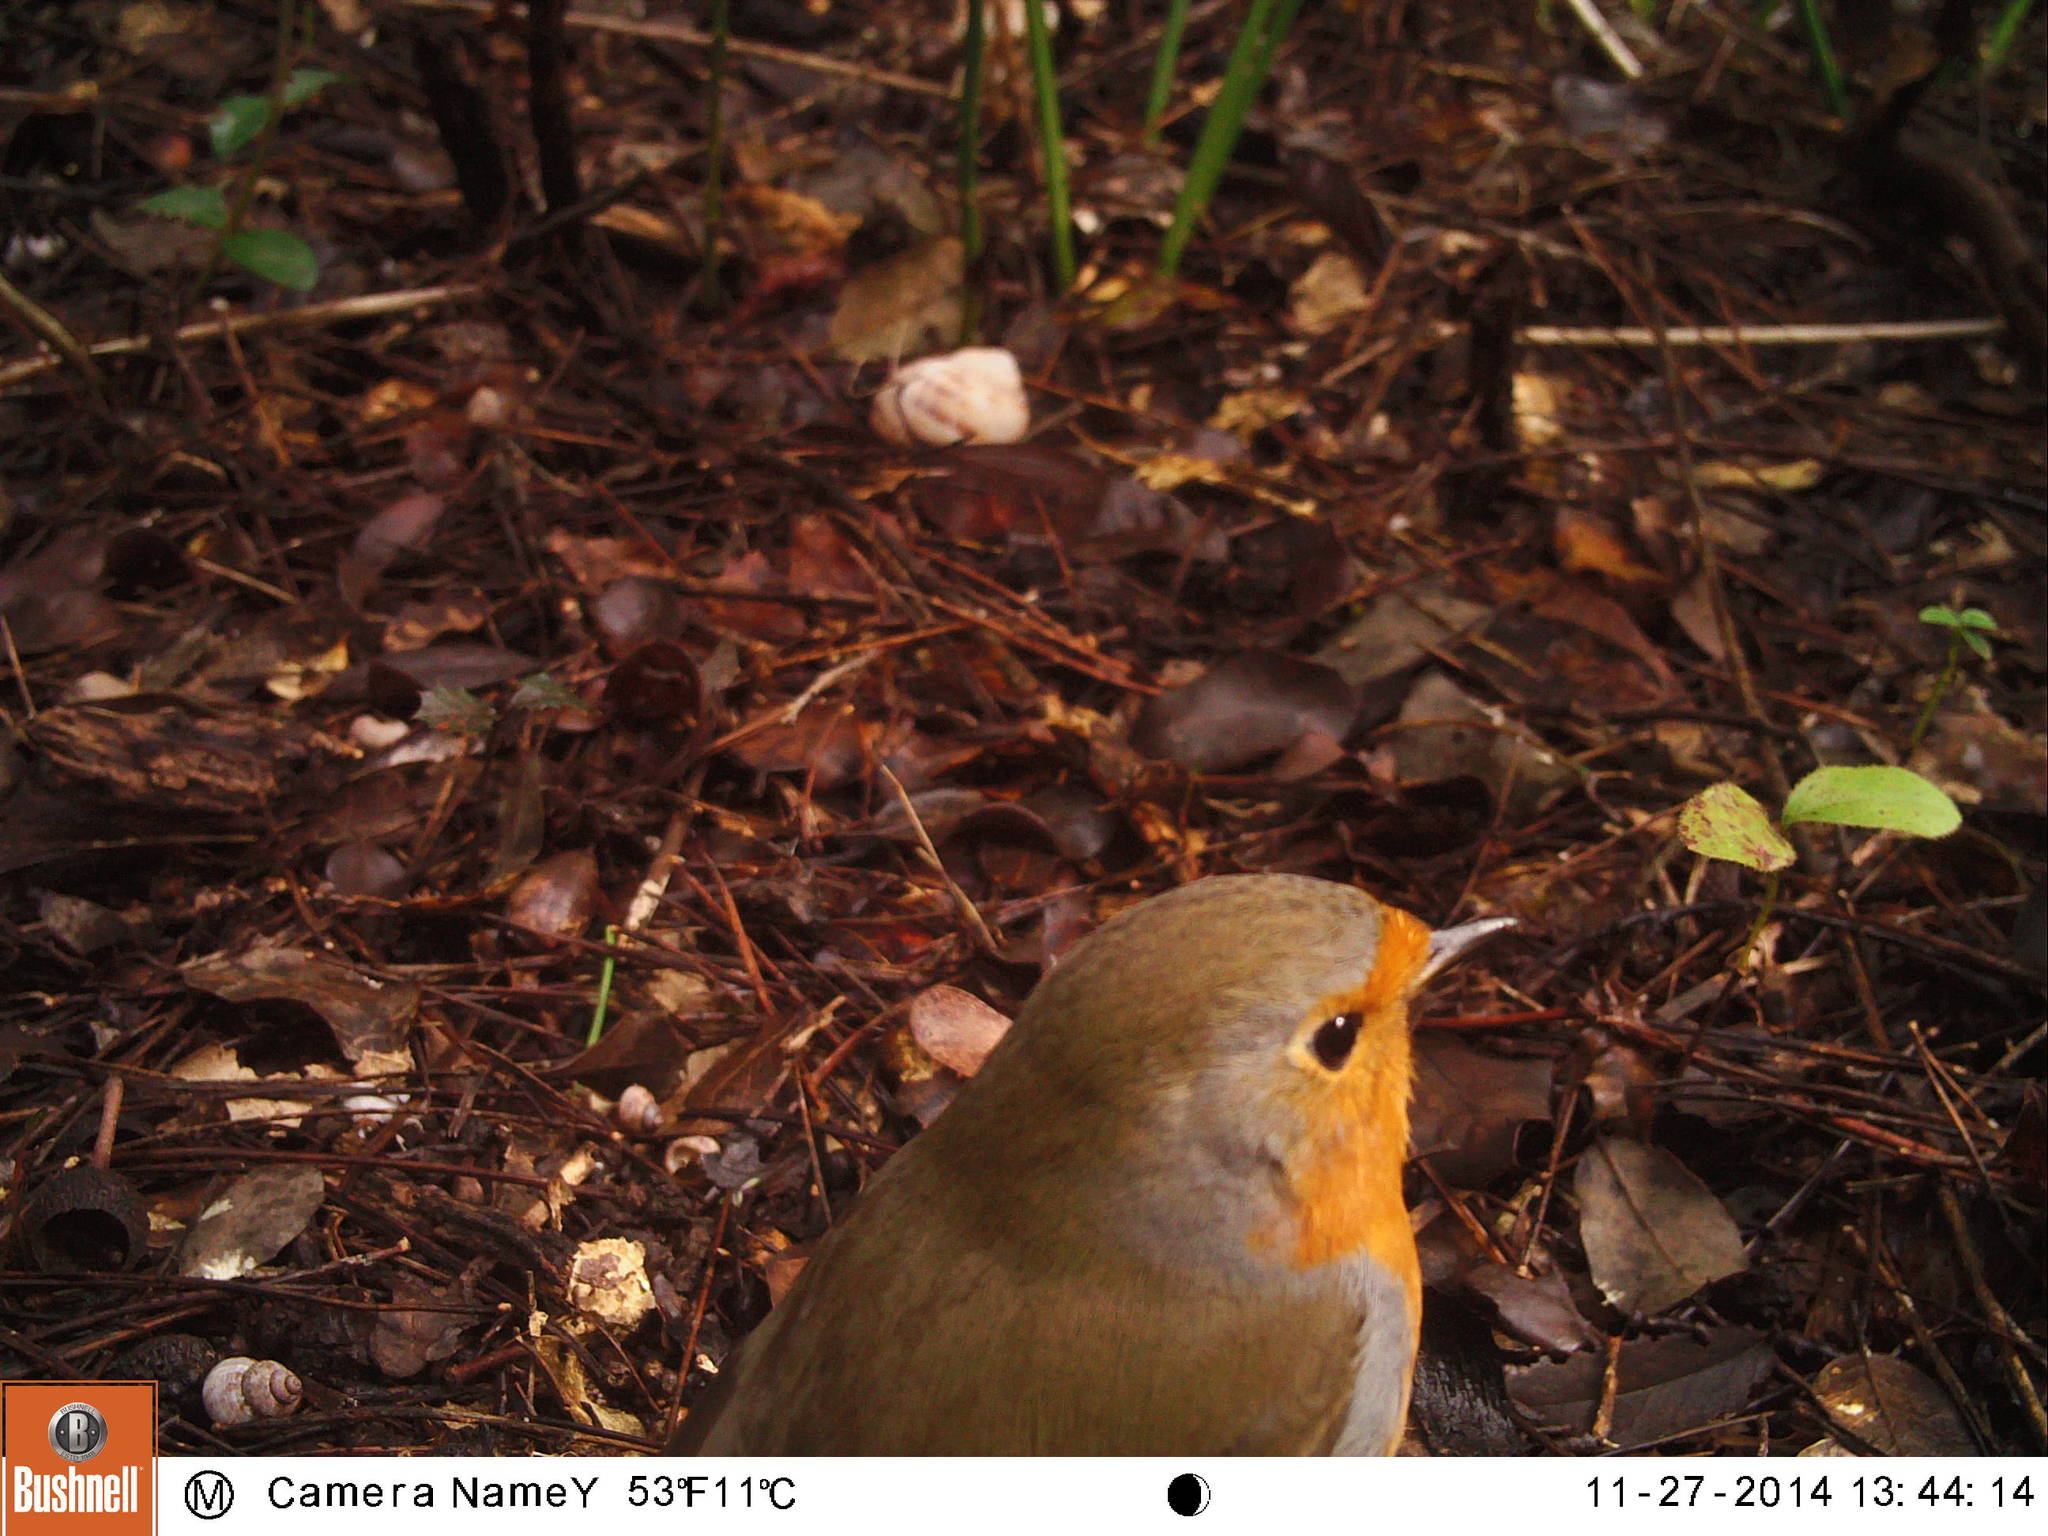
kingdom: Animalia
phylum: Chordata
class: Aves
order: Passeriformes
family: Muscicapidae
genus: Erithacus
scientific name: Erithacus rubecula
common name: European robin
